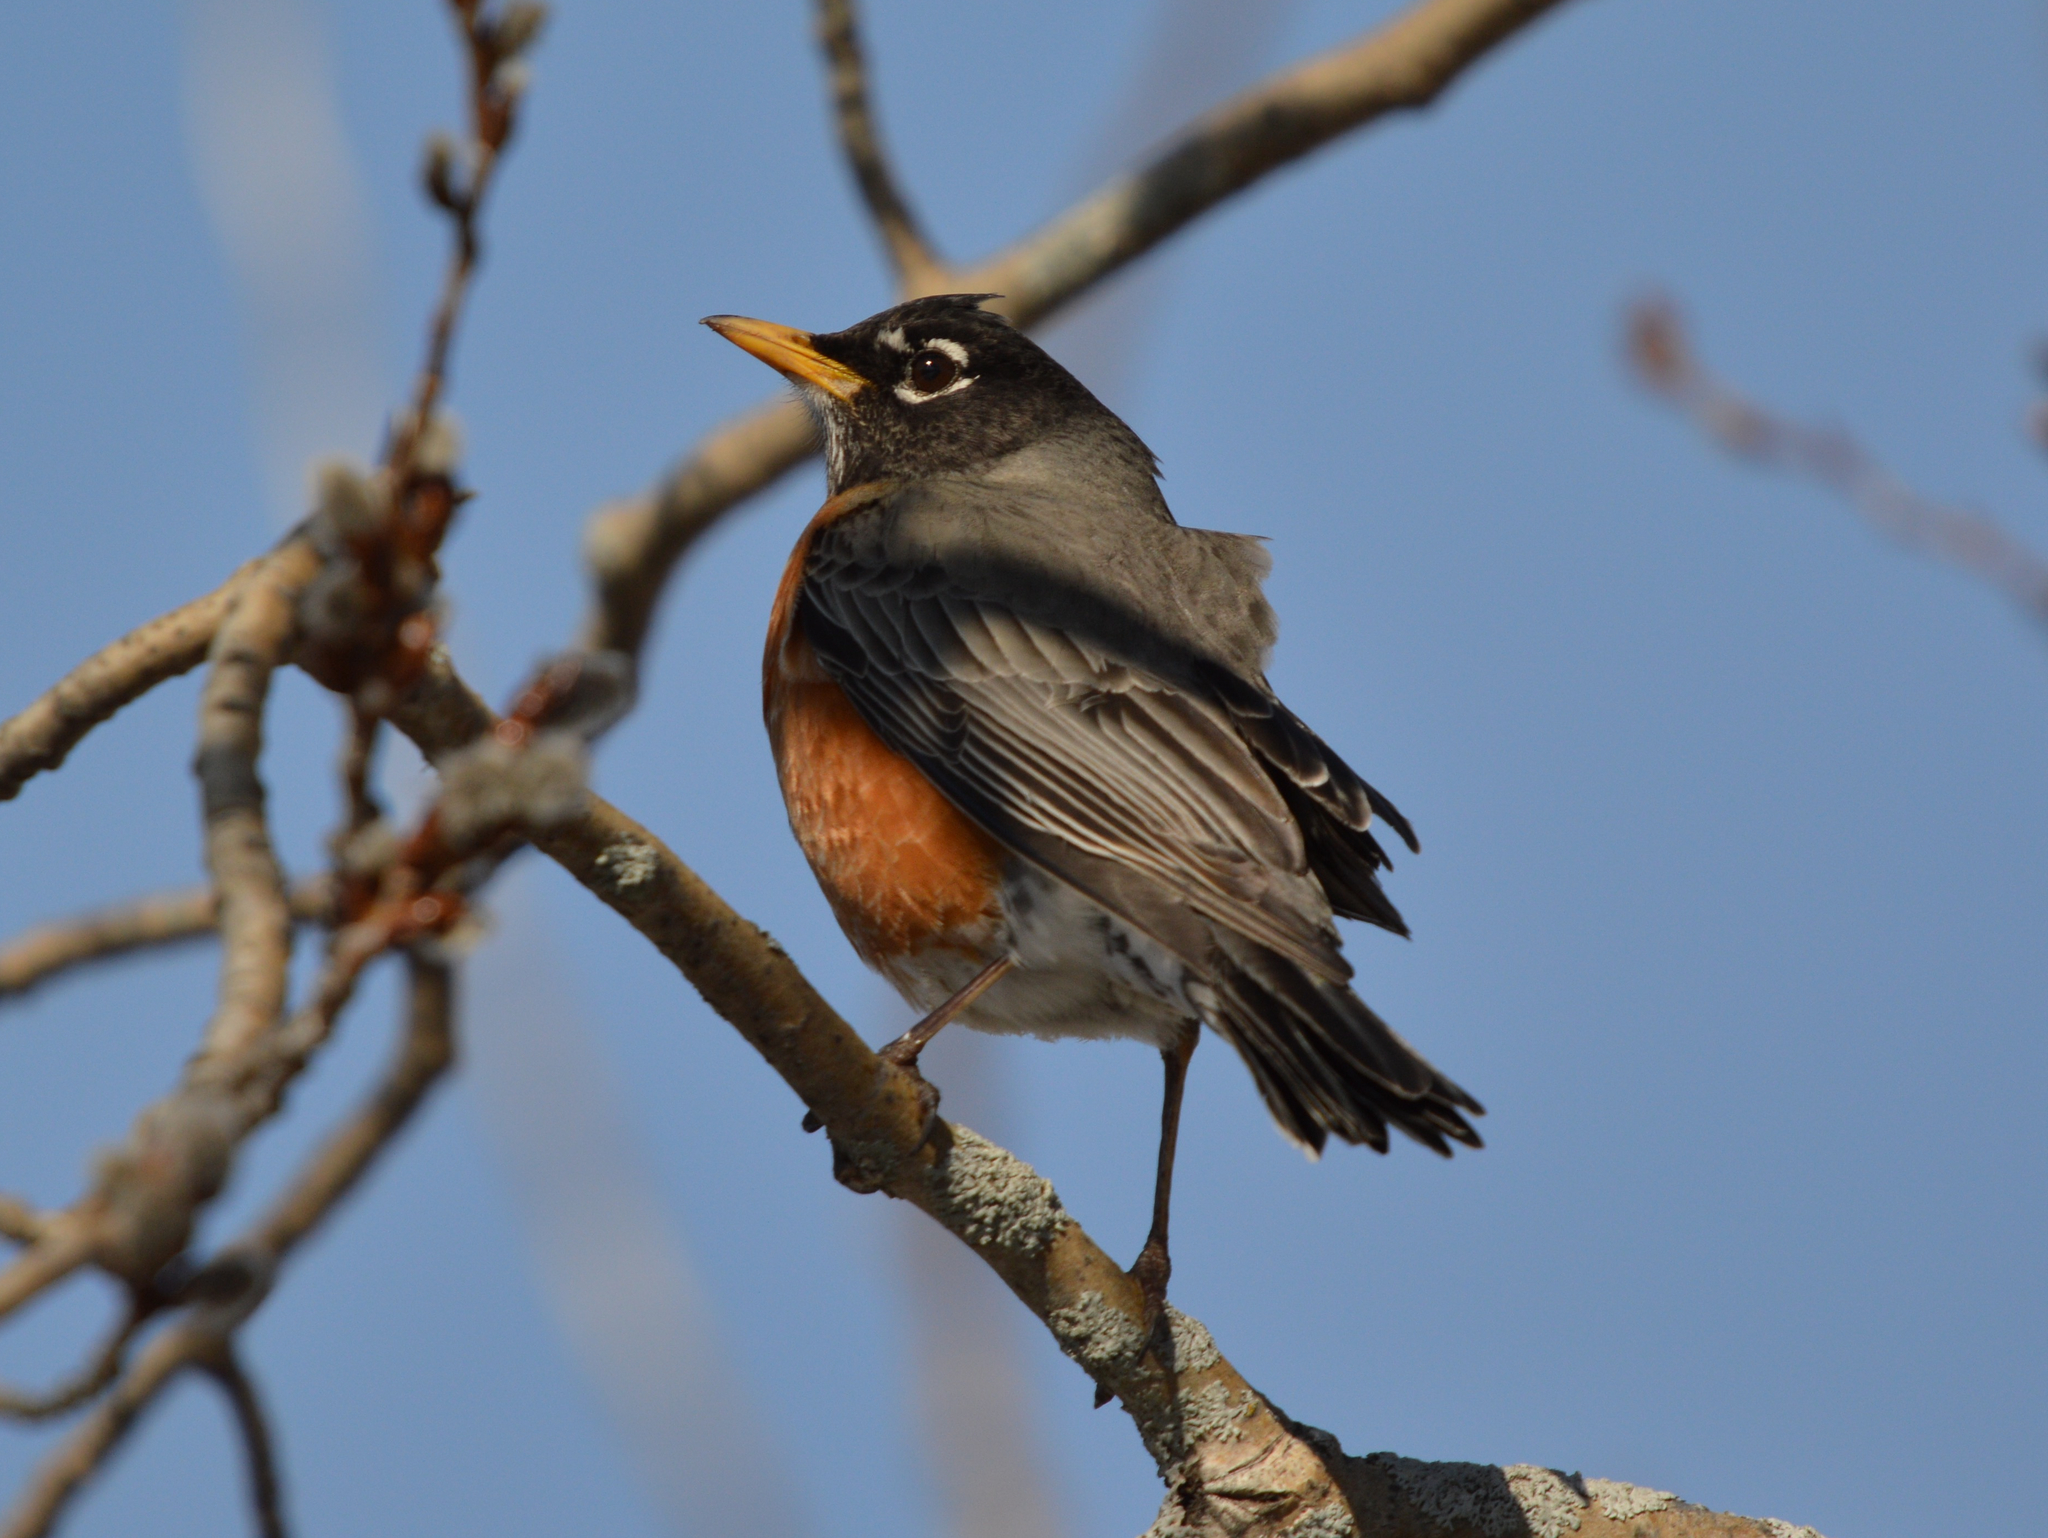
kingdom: Animalia
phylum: Chordata
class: Aves
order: Passeriformes
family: Turdidae
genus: Turdus
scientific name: Turdus migratorius
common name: American robin
